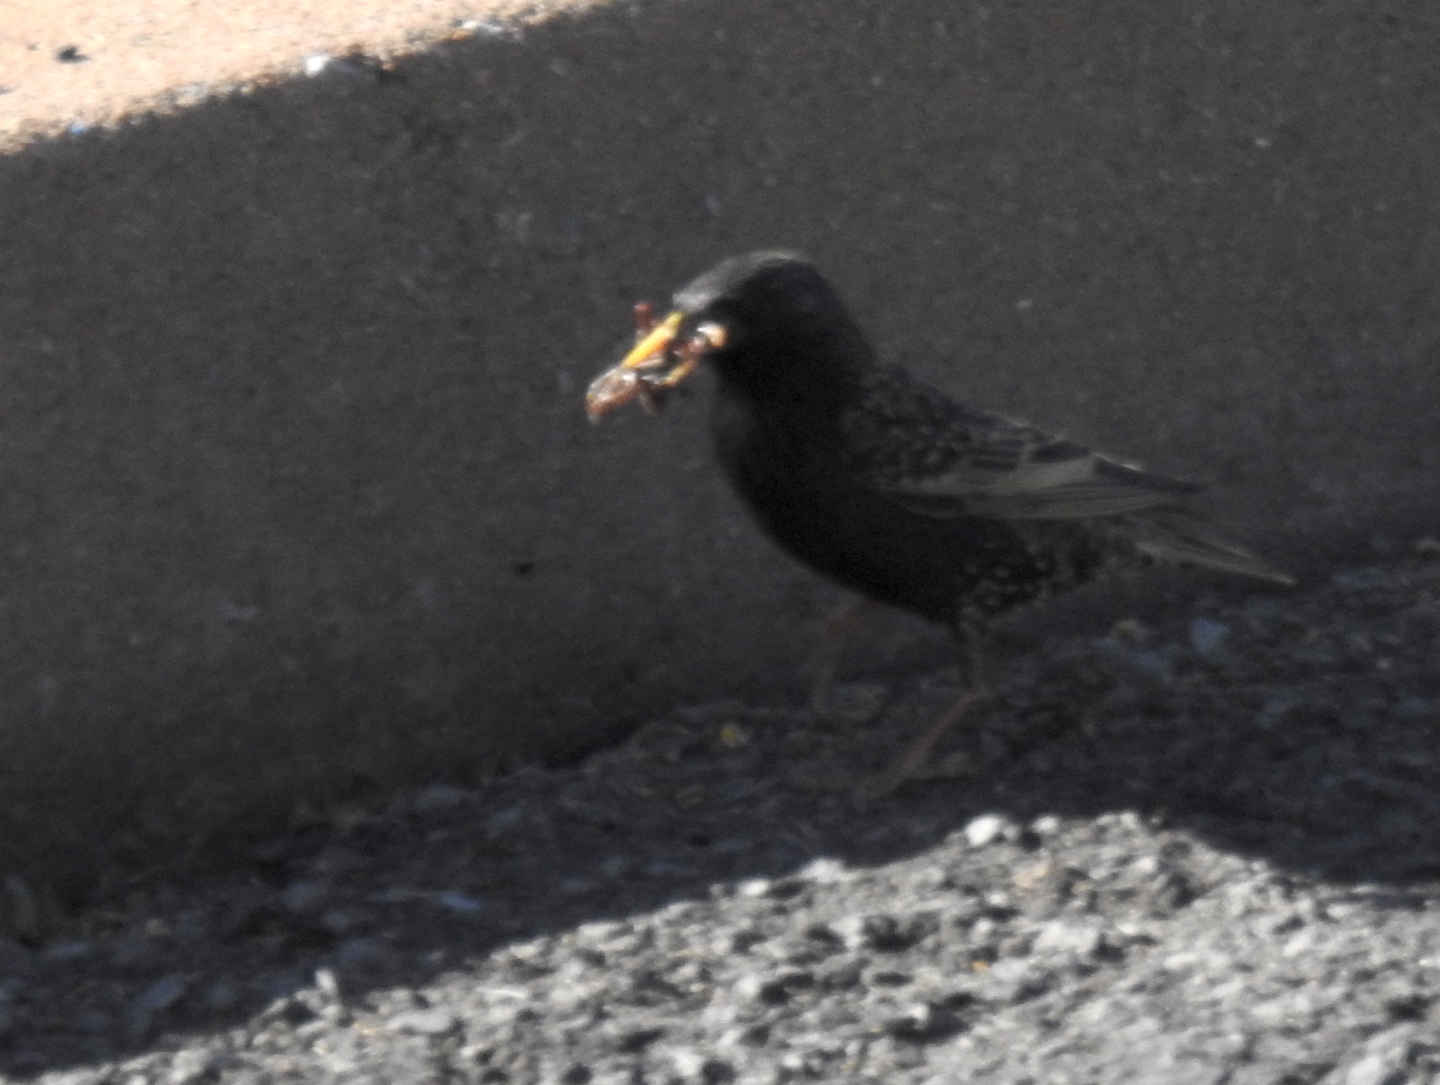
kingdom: Animalia
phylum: Chordata
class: Aves
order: Passeriformes
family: Sturnidae
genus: Sturnus
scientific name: Sturnus vulgaris
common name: Common starling
